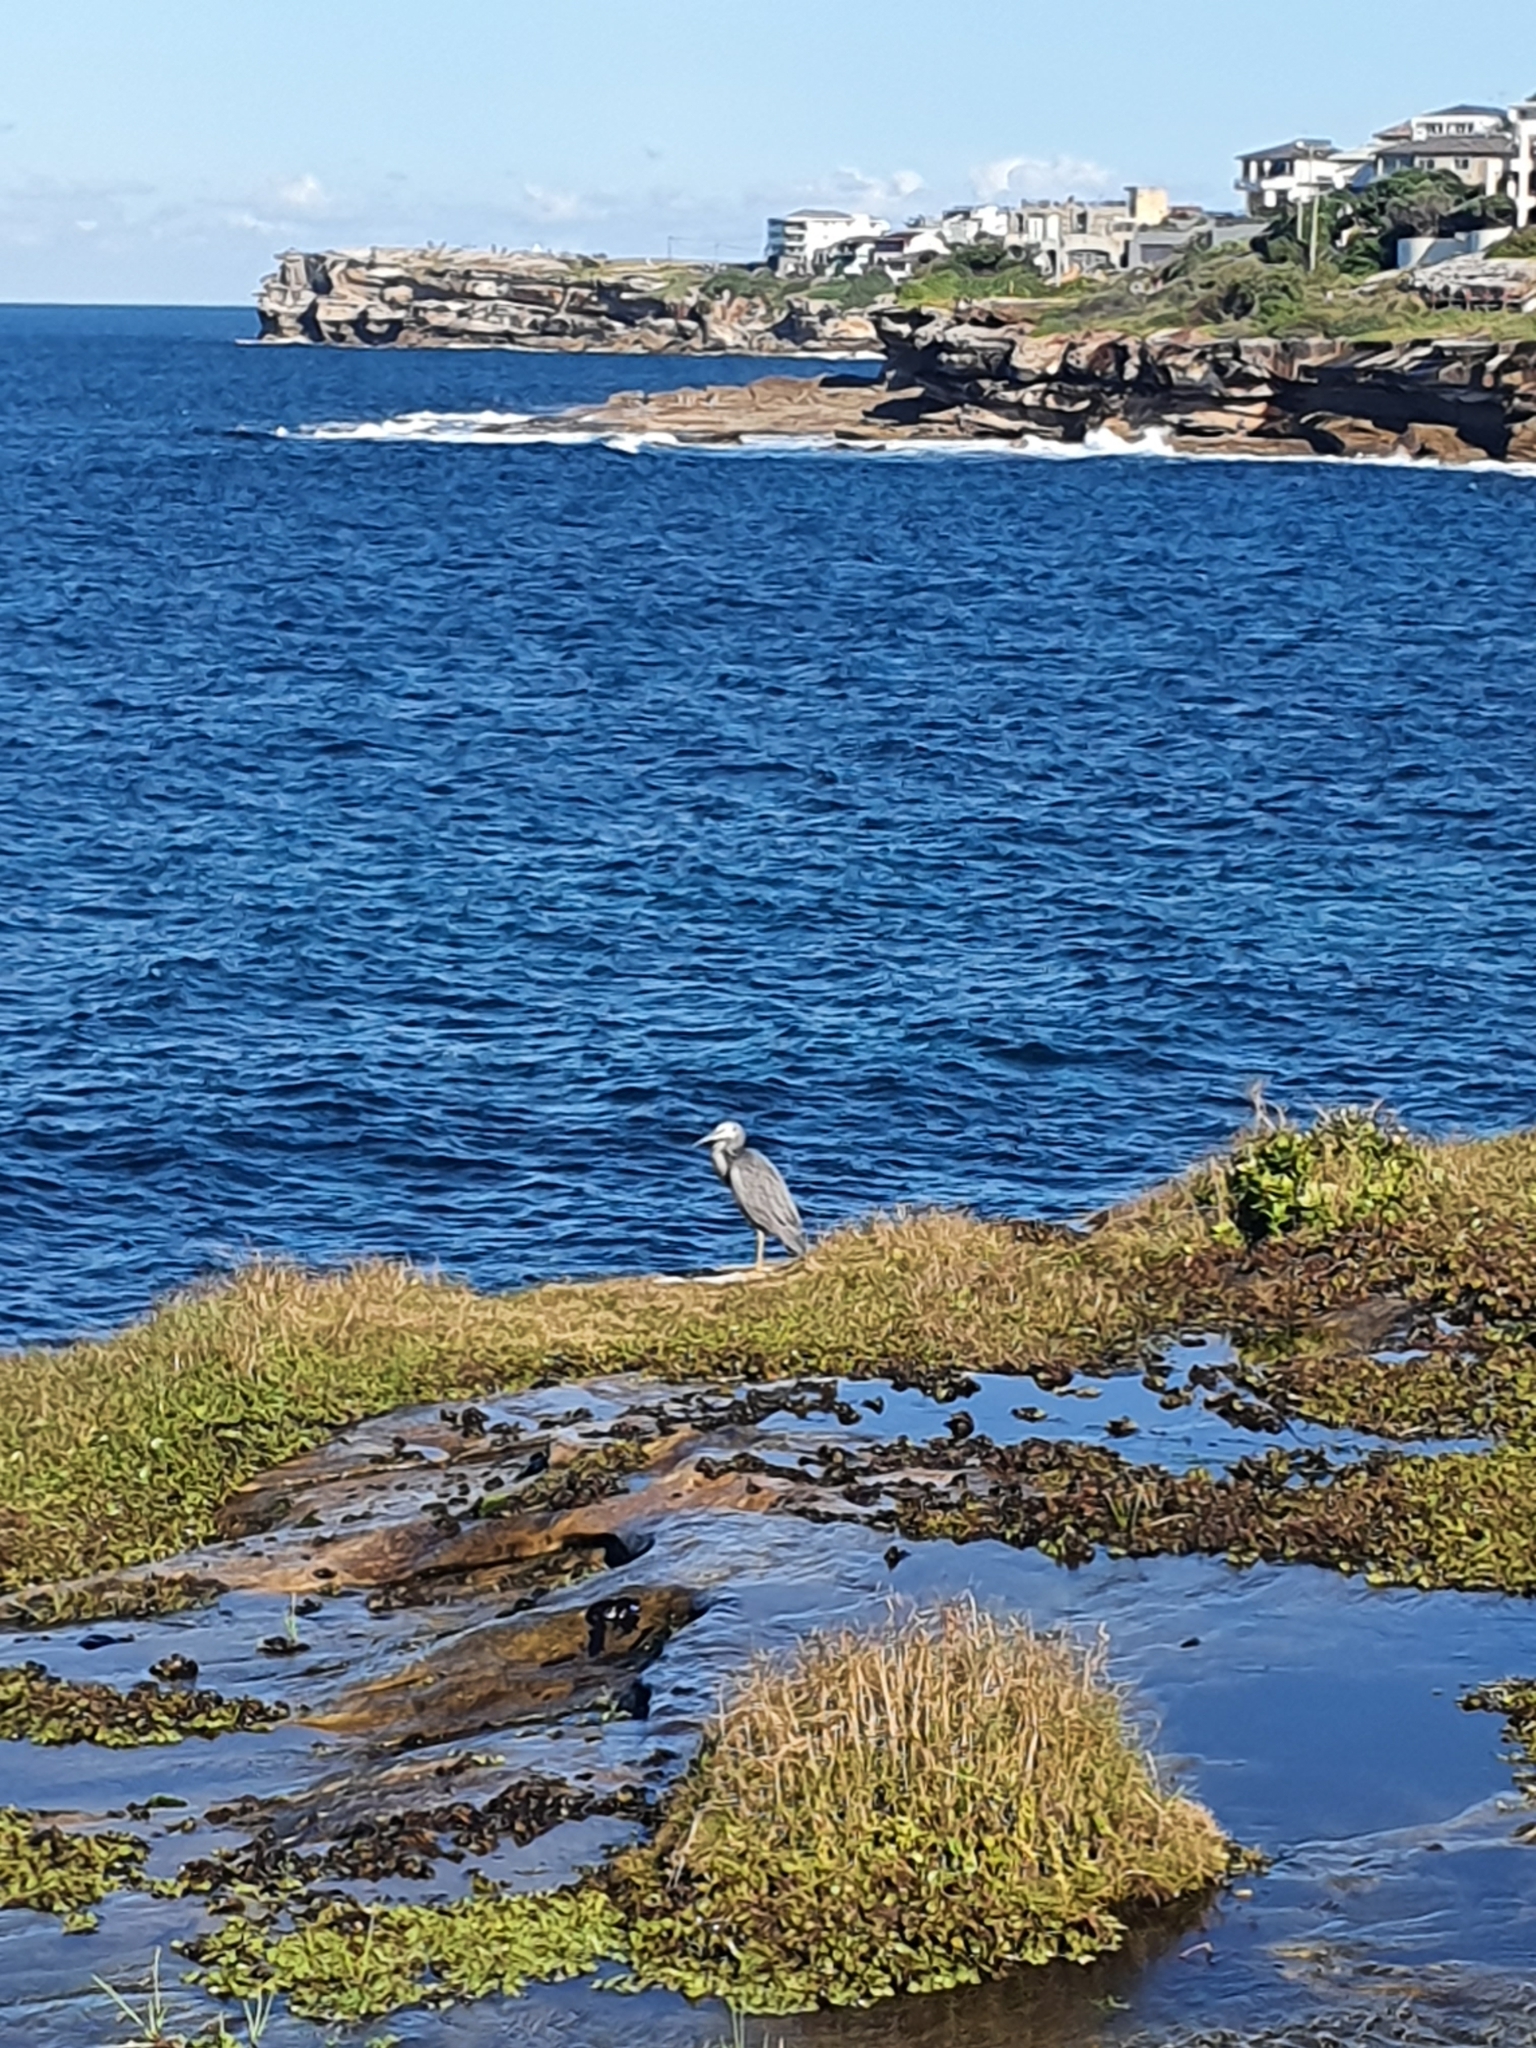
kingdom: Animalia
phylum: Chordata
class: Aves
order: Pelecaniformes
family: Ardeidae
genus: Egretta
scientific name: Egretta novaehollandiae
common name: White-faced heron
